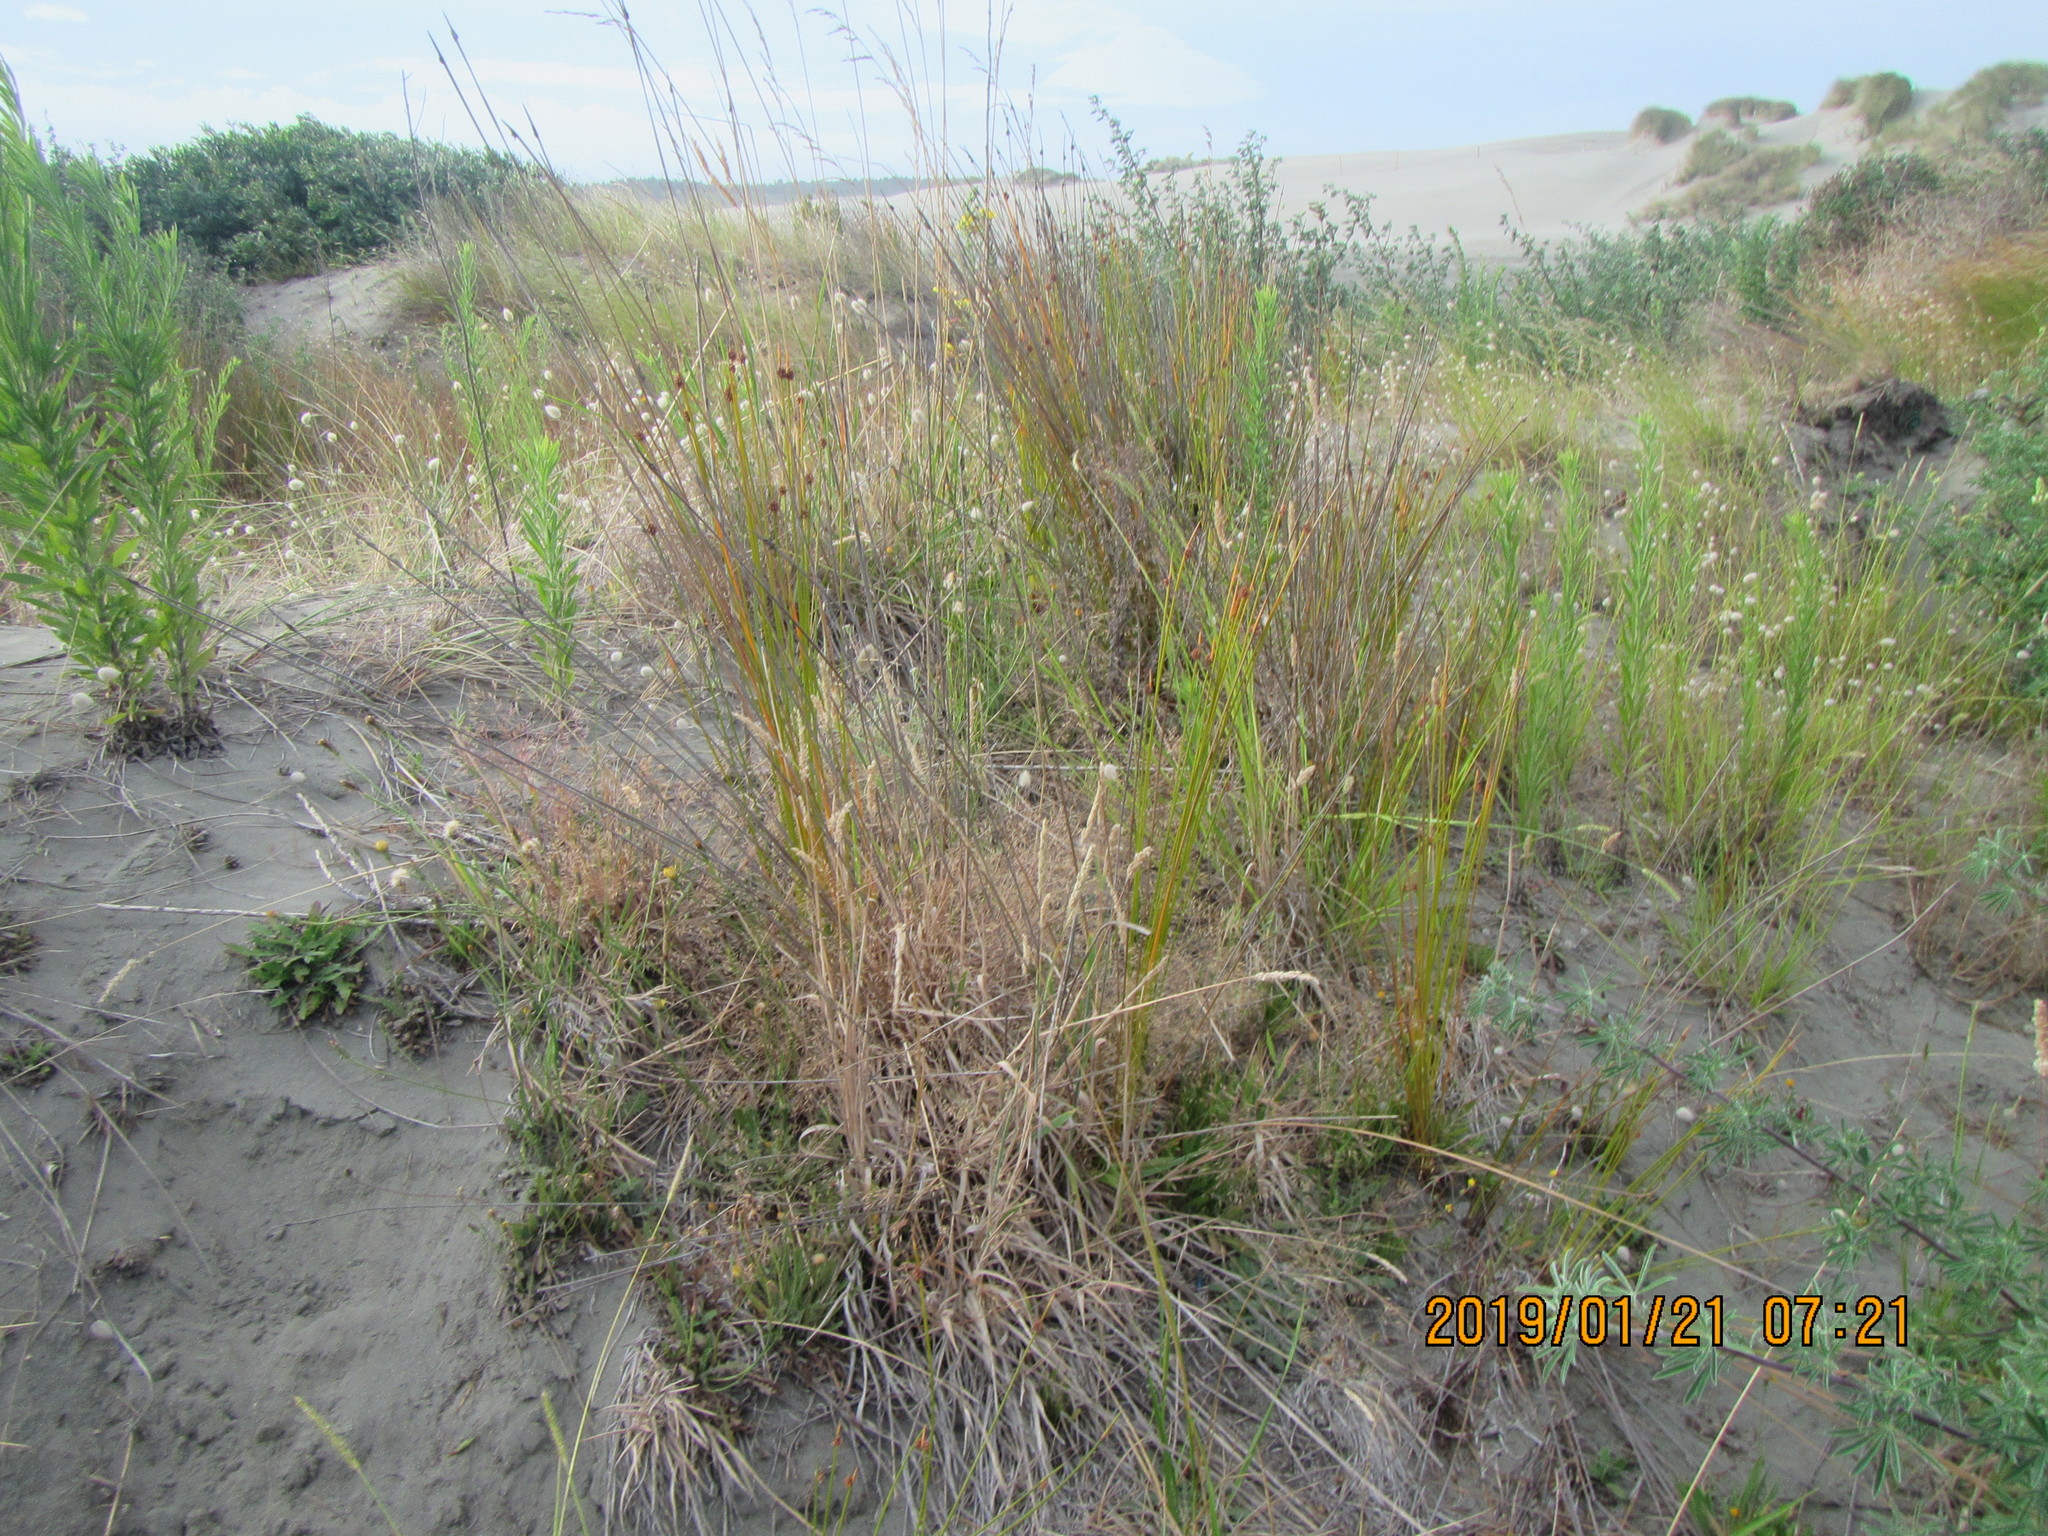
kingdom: Plantae
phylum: Tracheophyta
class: Liliopsida
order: Poales
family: Poaceae
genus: Lachnagrostis
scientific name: Lachnagrostis billardierei
